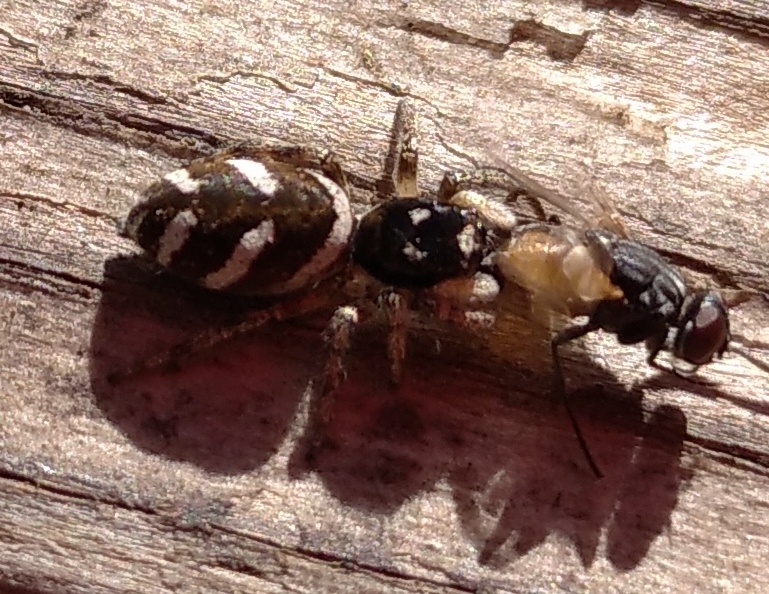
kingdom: Animalia
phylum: Arthropoda
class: Arachnida
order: Araneae
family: Salticidae
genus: Salticus
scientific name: Salticus scenicus
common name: Zebra jumper
